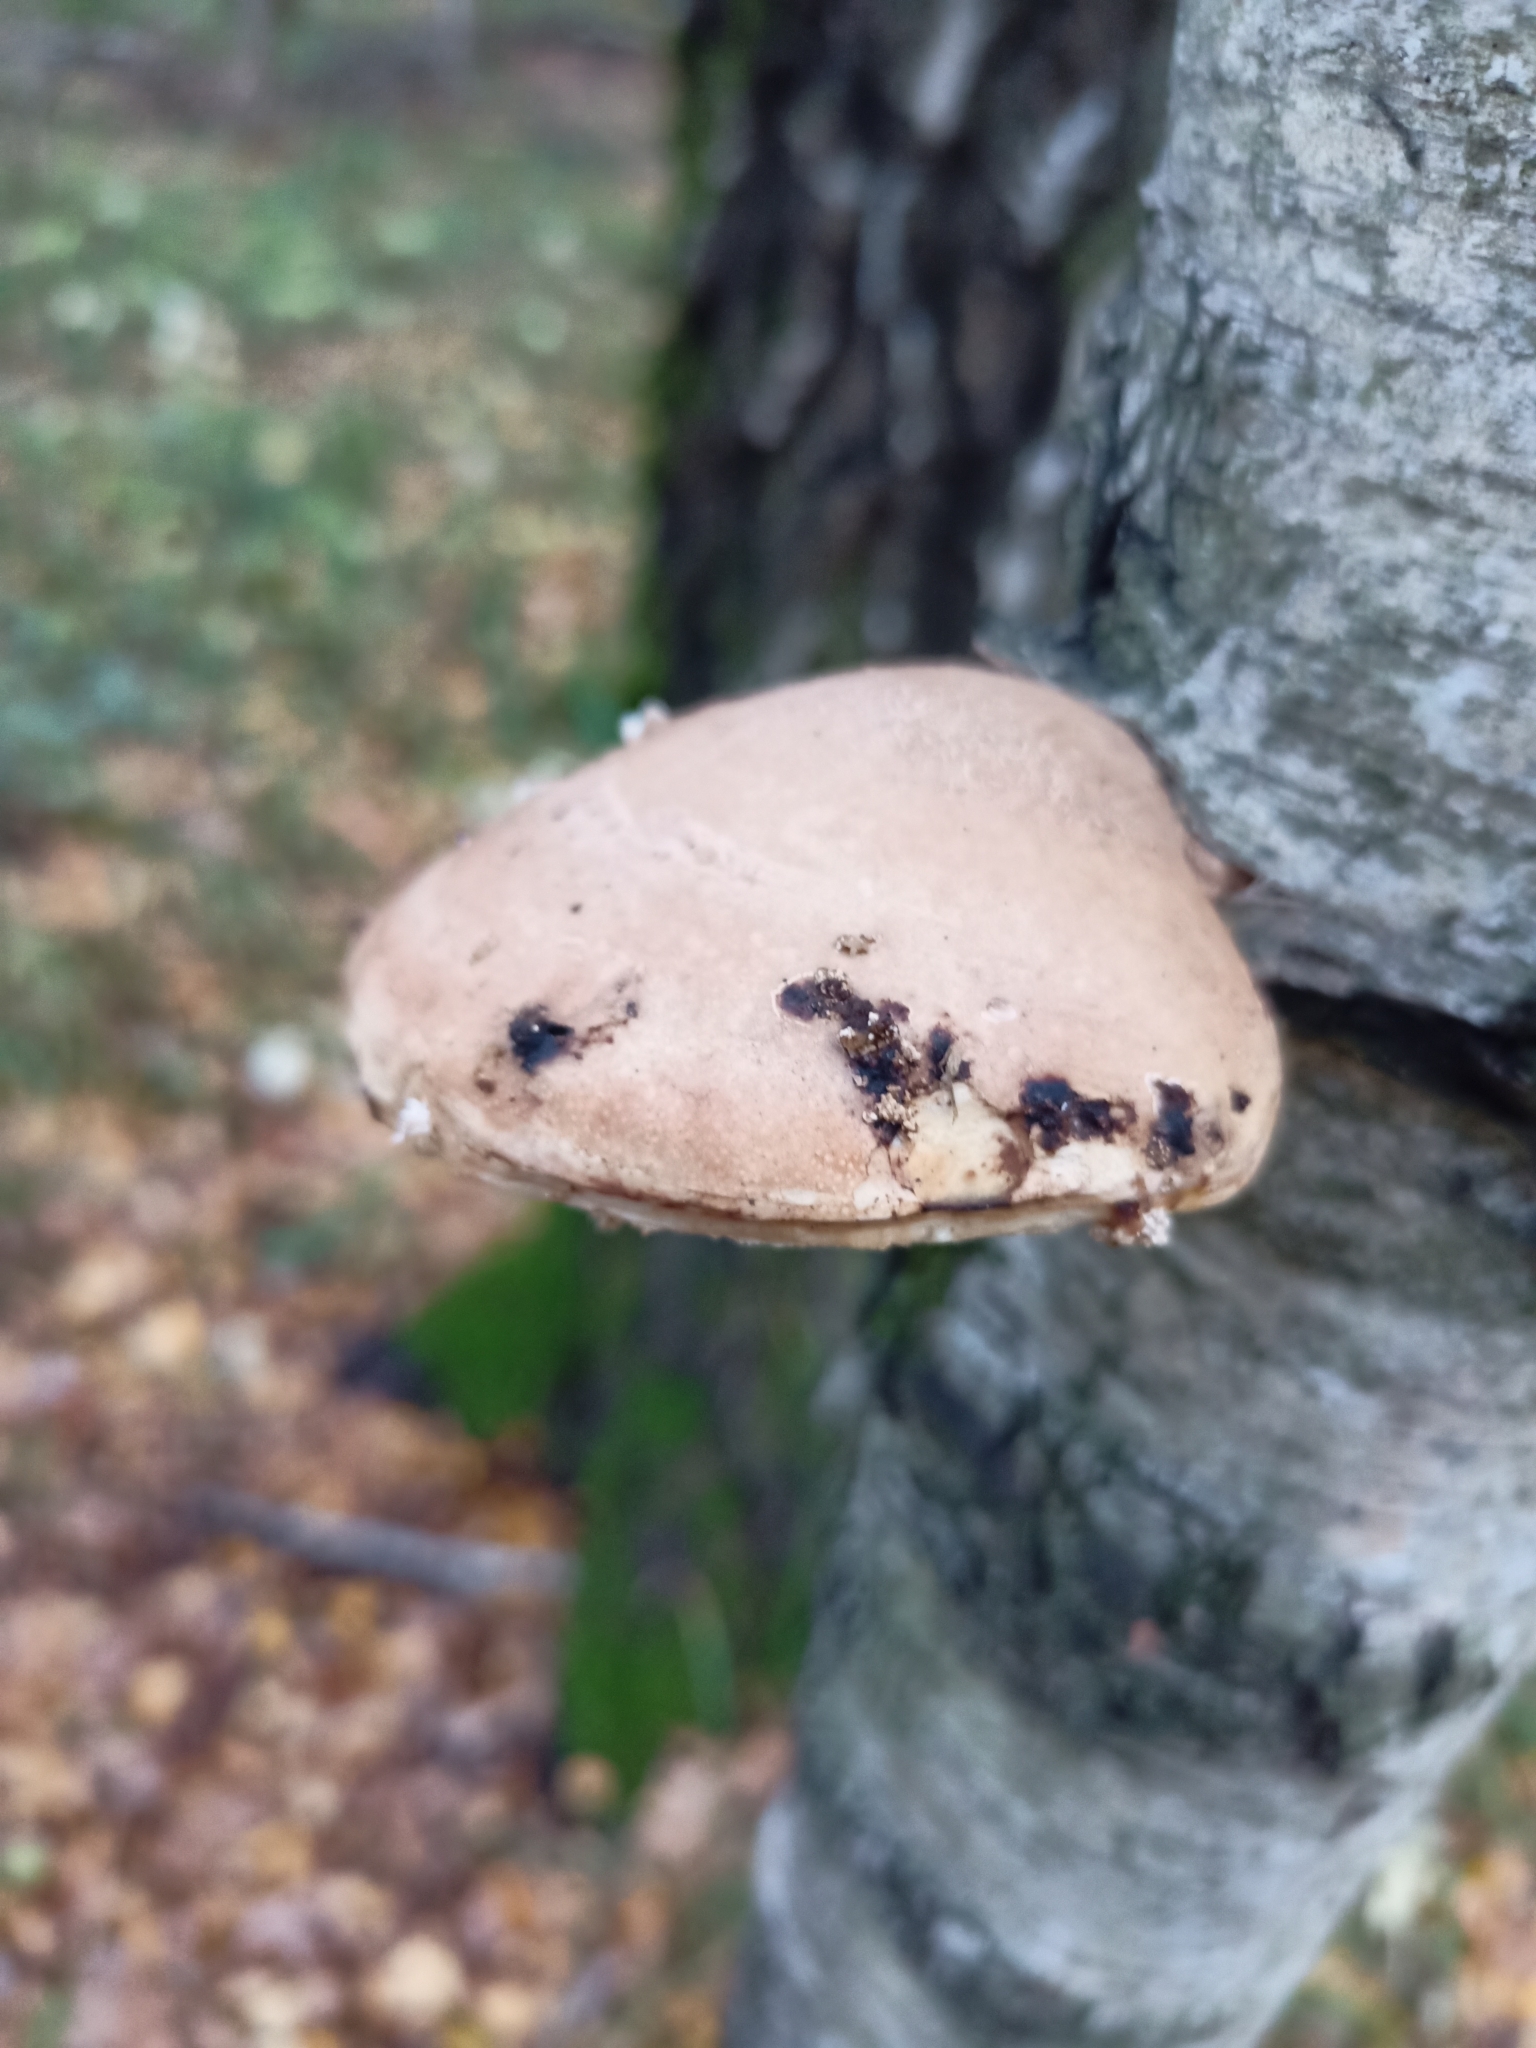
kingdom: Fungi
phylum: Basidiomycota
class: Agaricomycetes
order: Polyporales
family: Fomitopsidaceae
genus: Fomitopsis
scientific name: Fomitopsis betulina
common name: Birch polypore
